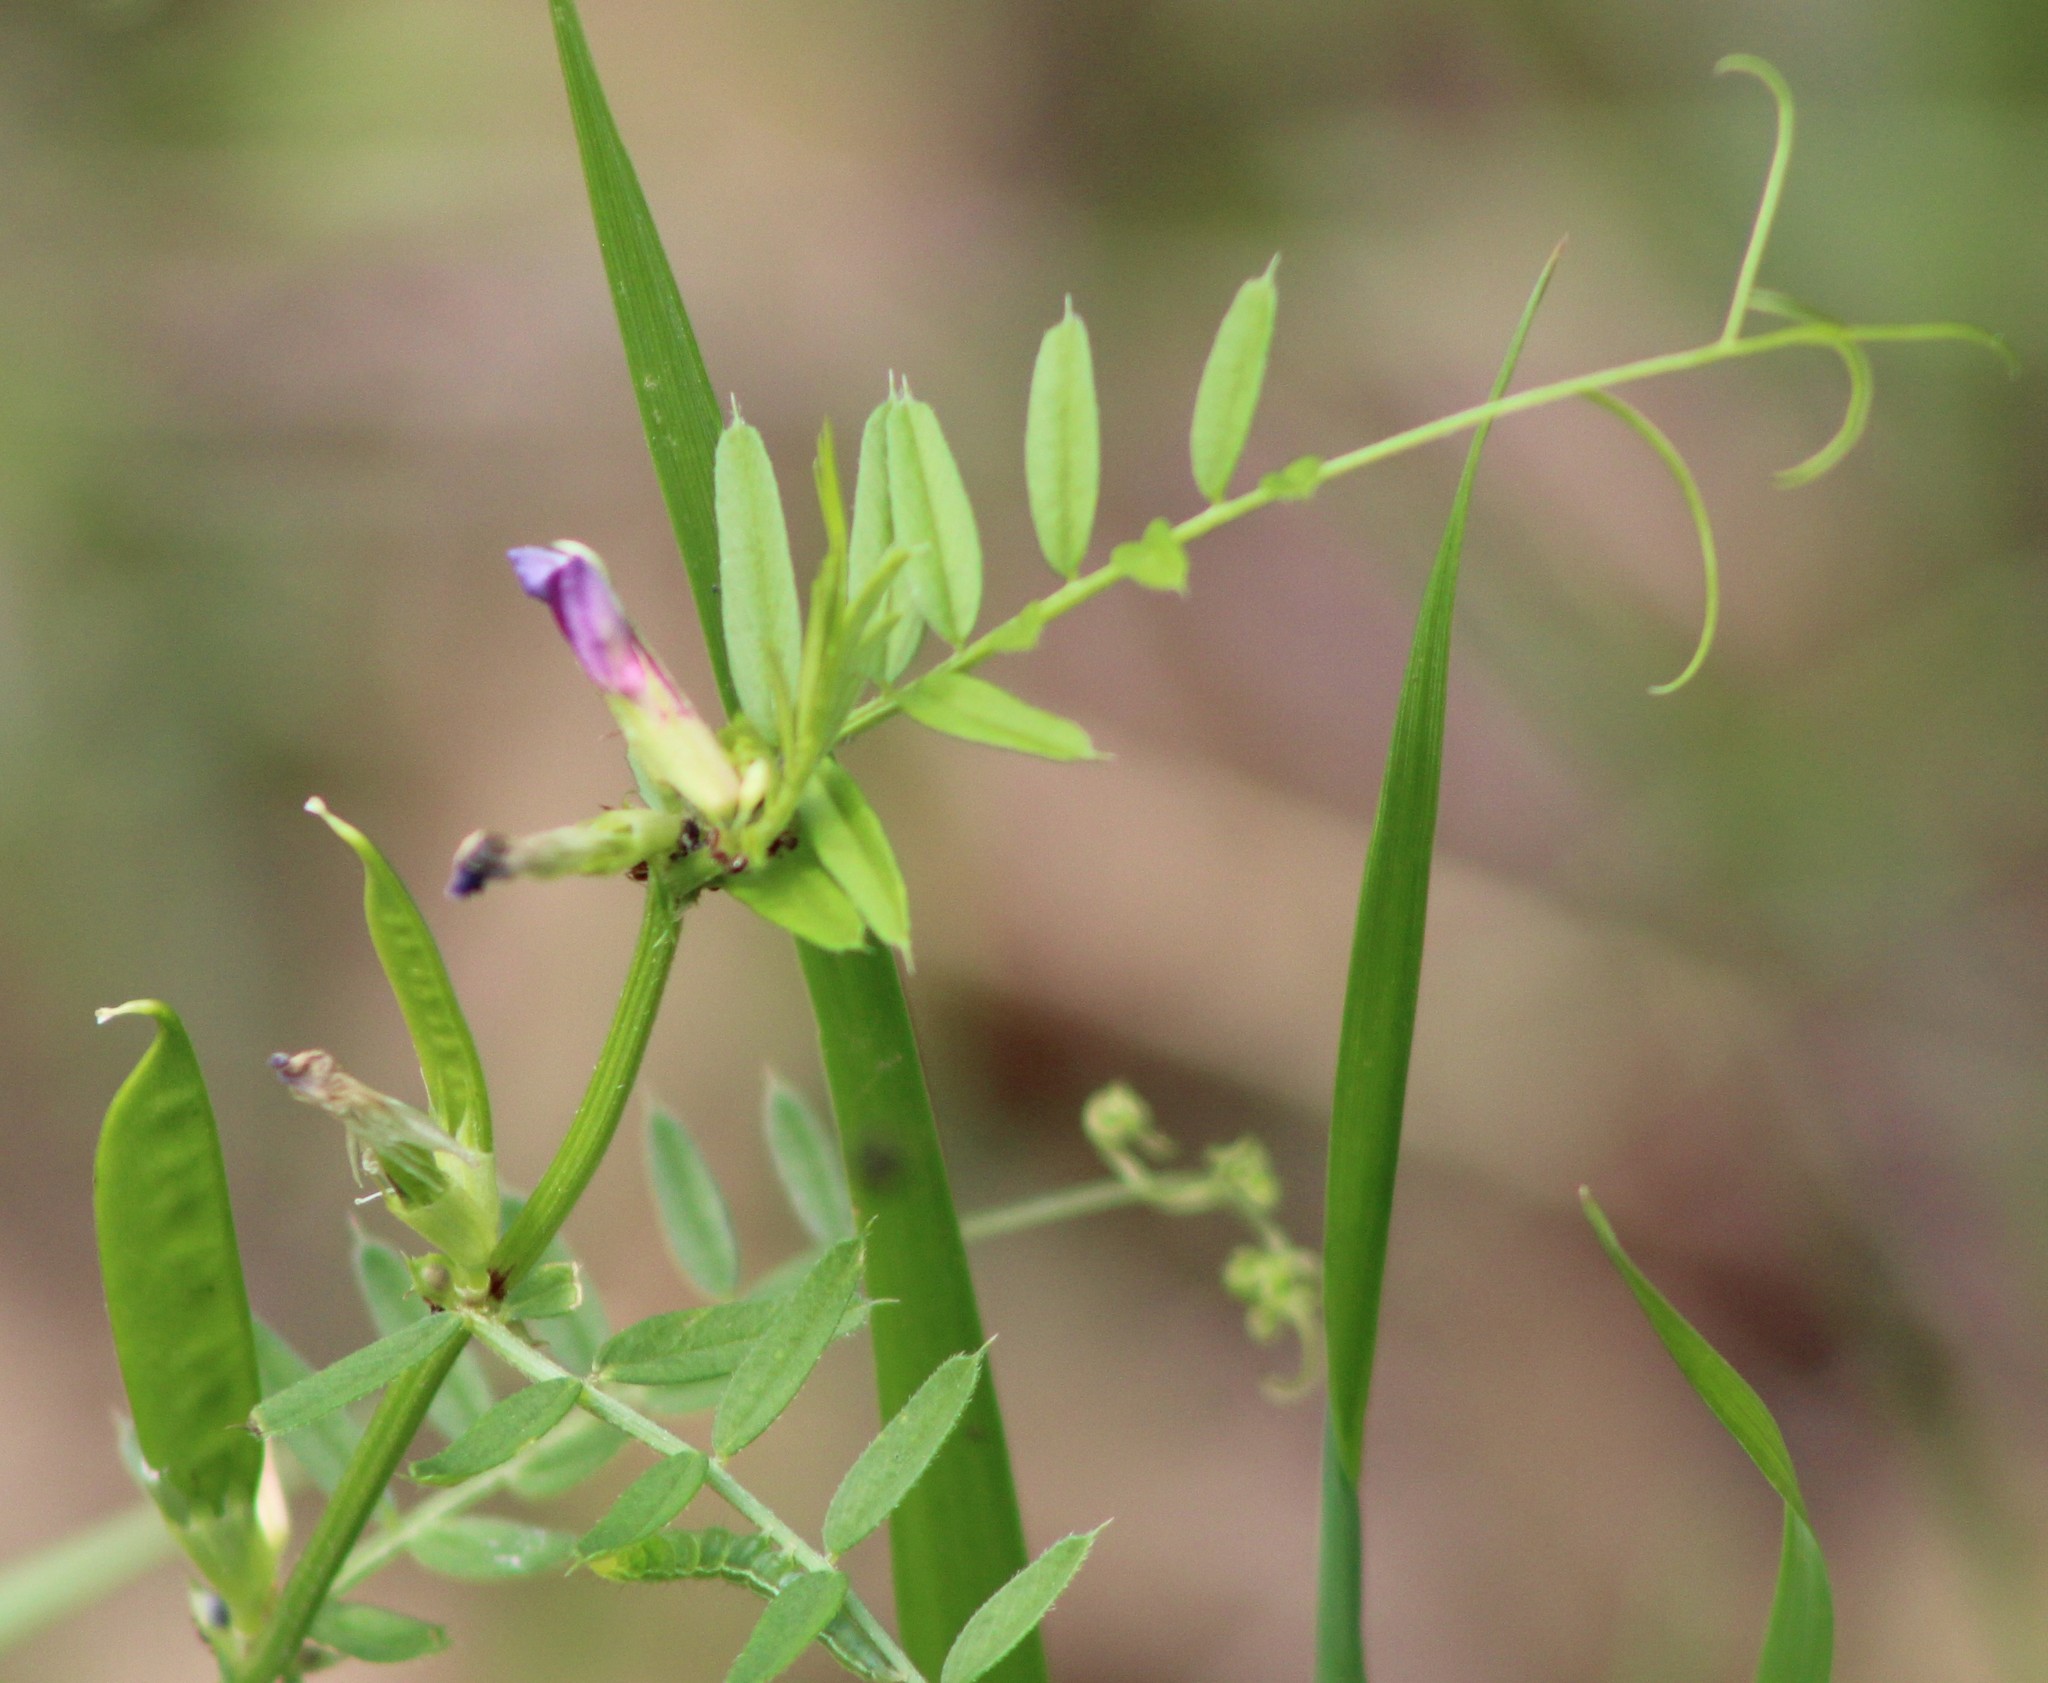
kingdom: Plantae
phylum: Tracheophyta
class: Magnoliopsida
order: Fabales
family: Fabaceae
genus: Vicia
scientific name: Vicia sativa
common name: Garden vetch
